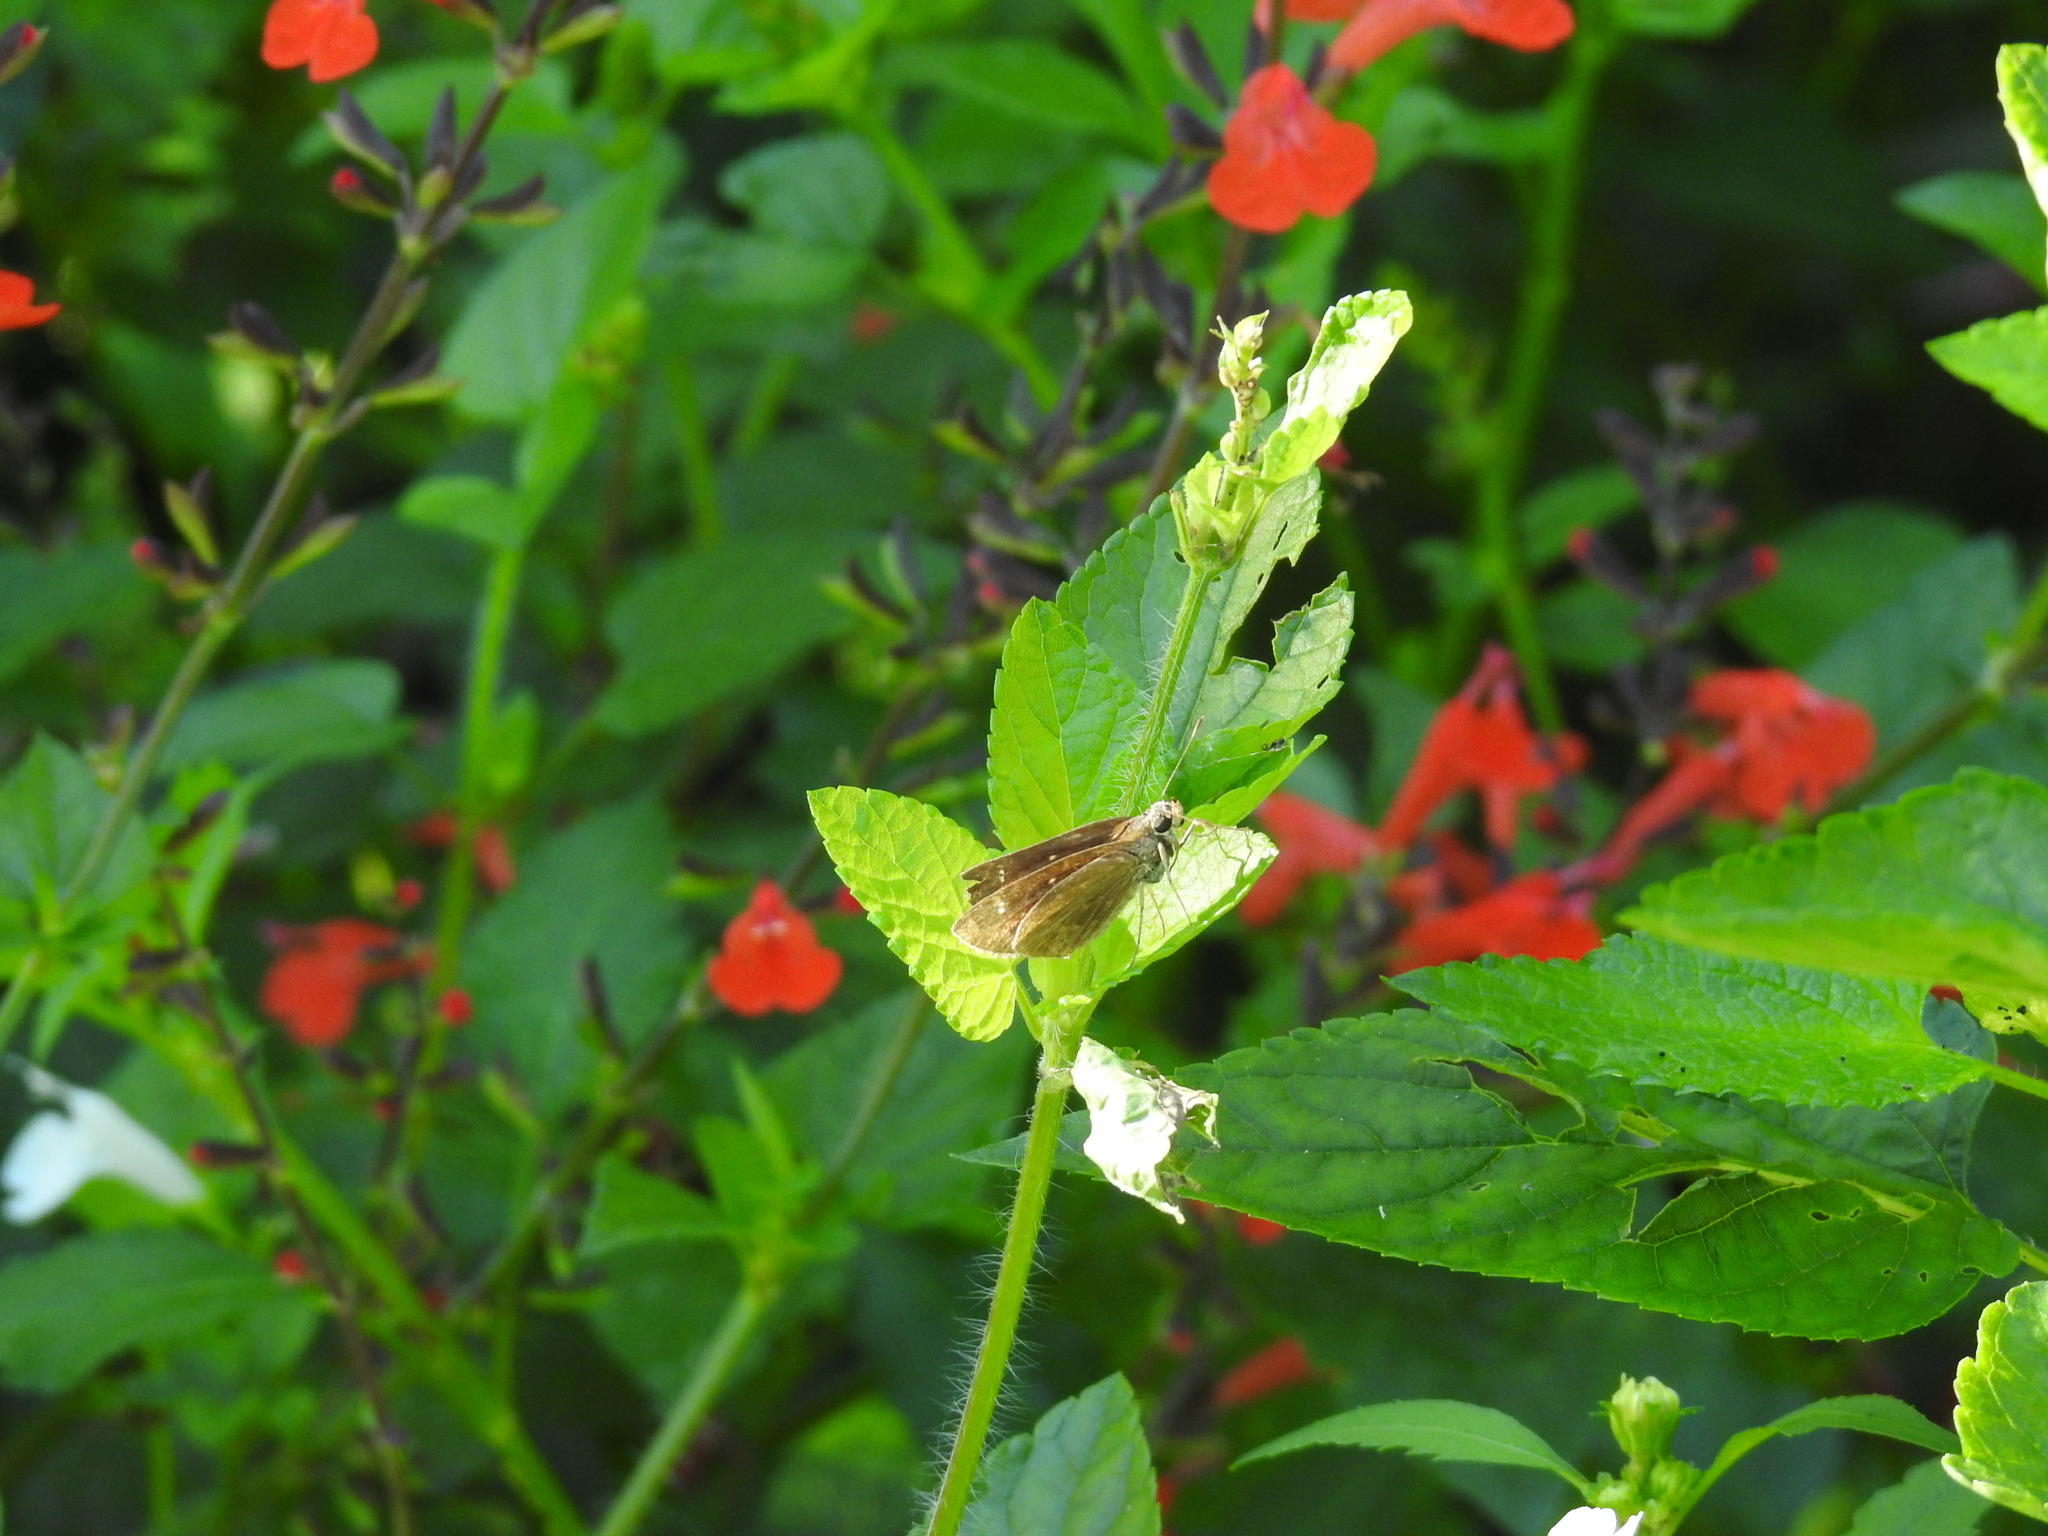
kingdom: Animalia
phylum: Arthropoda
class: Insecta
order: Lepidoptera
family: Hesperiidae
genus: Cymaenes
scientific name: Cymaenes tripunctus
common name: Dingy dotted skipper
